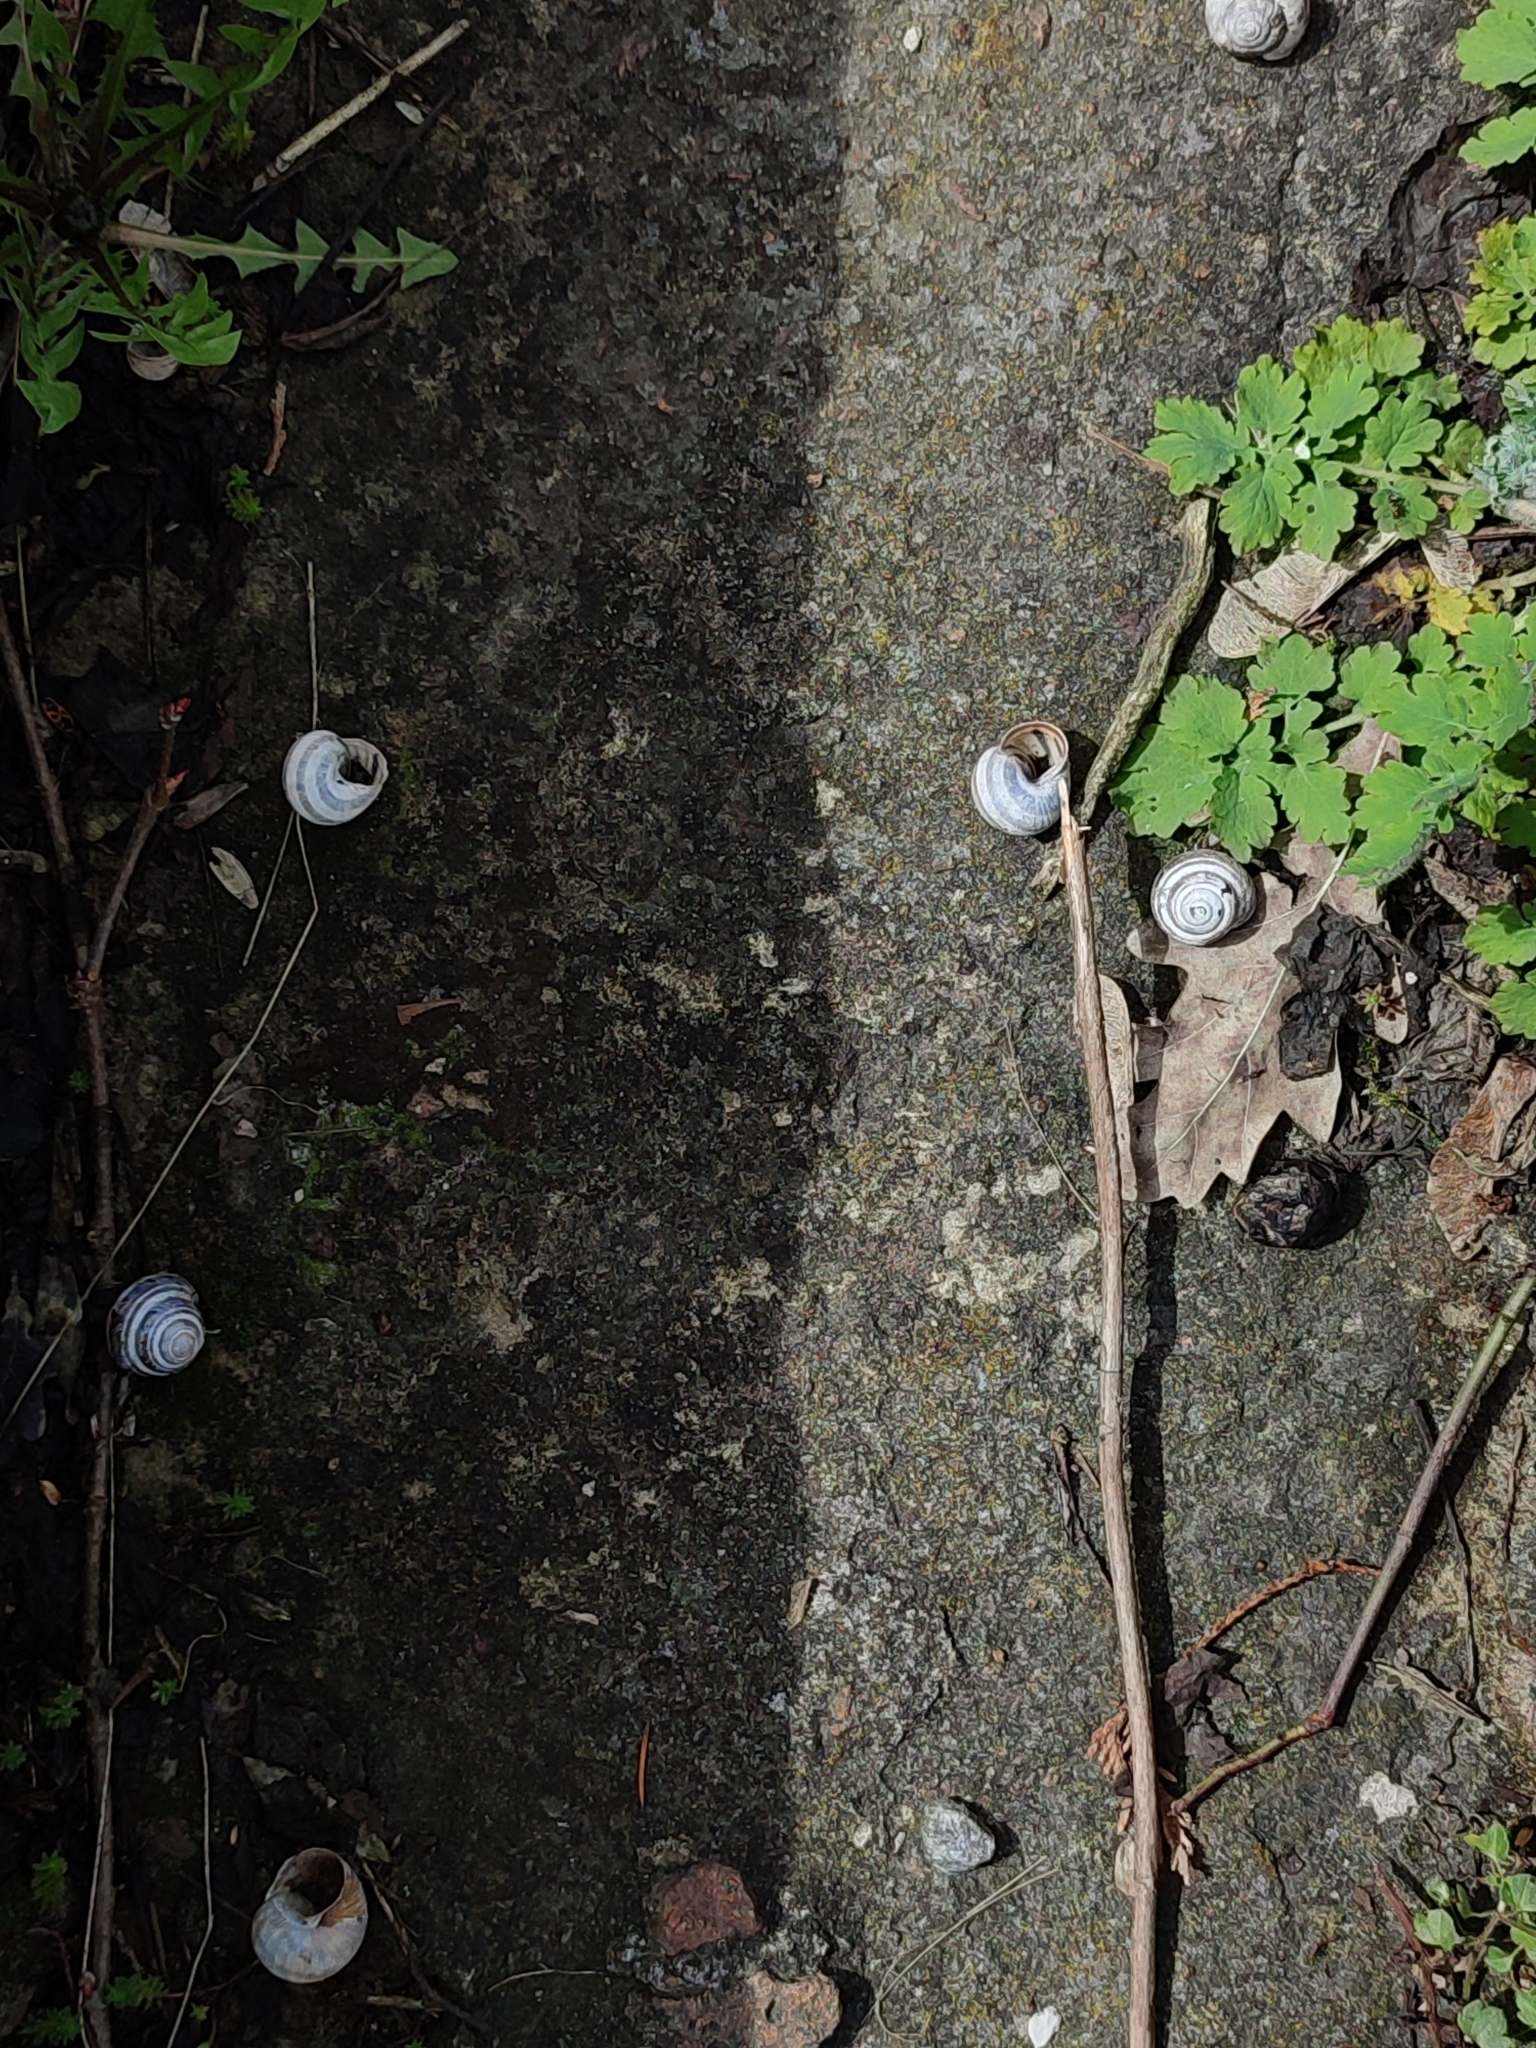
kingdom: Animalia
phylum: Mollusca
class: Gastropoda
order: Stylommatophora
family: Helicidae
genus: Caucasotachea
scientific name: Caucasotachea vindobonensis
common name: European helicid land snail
